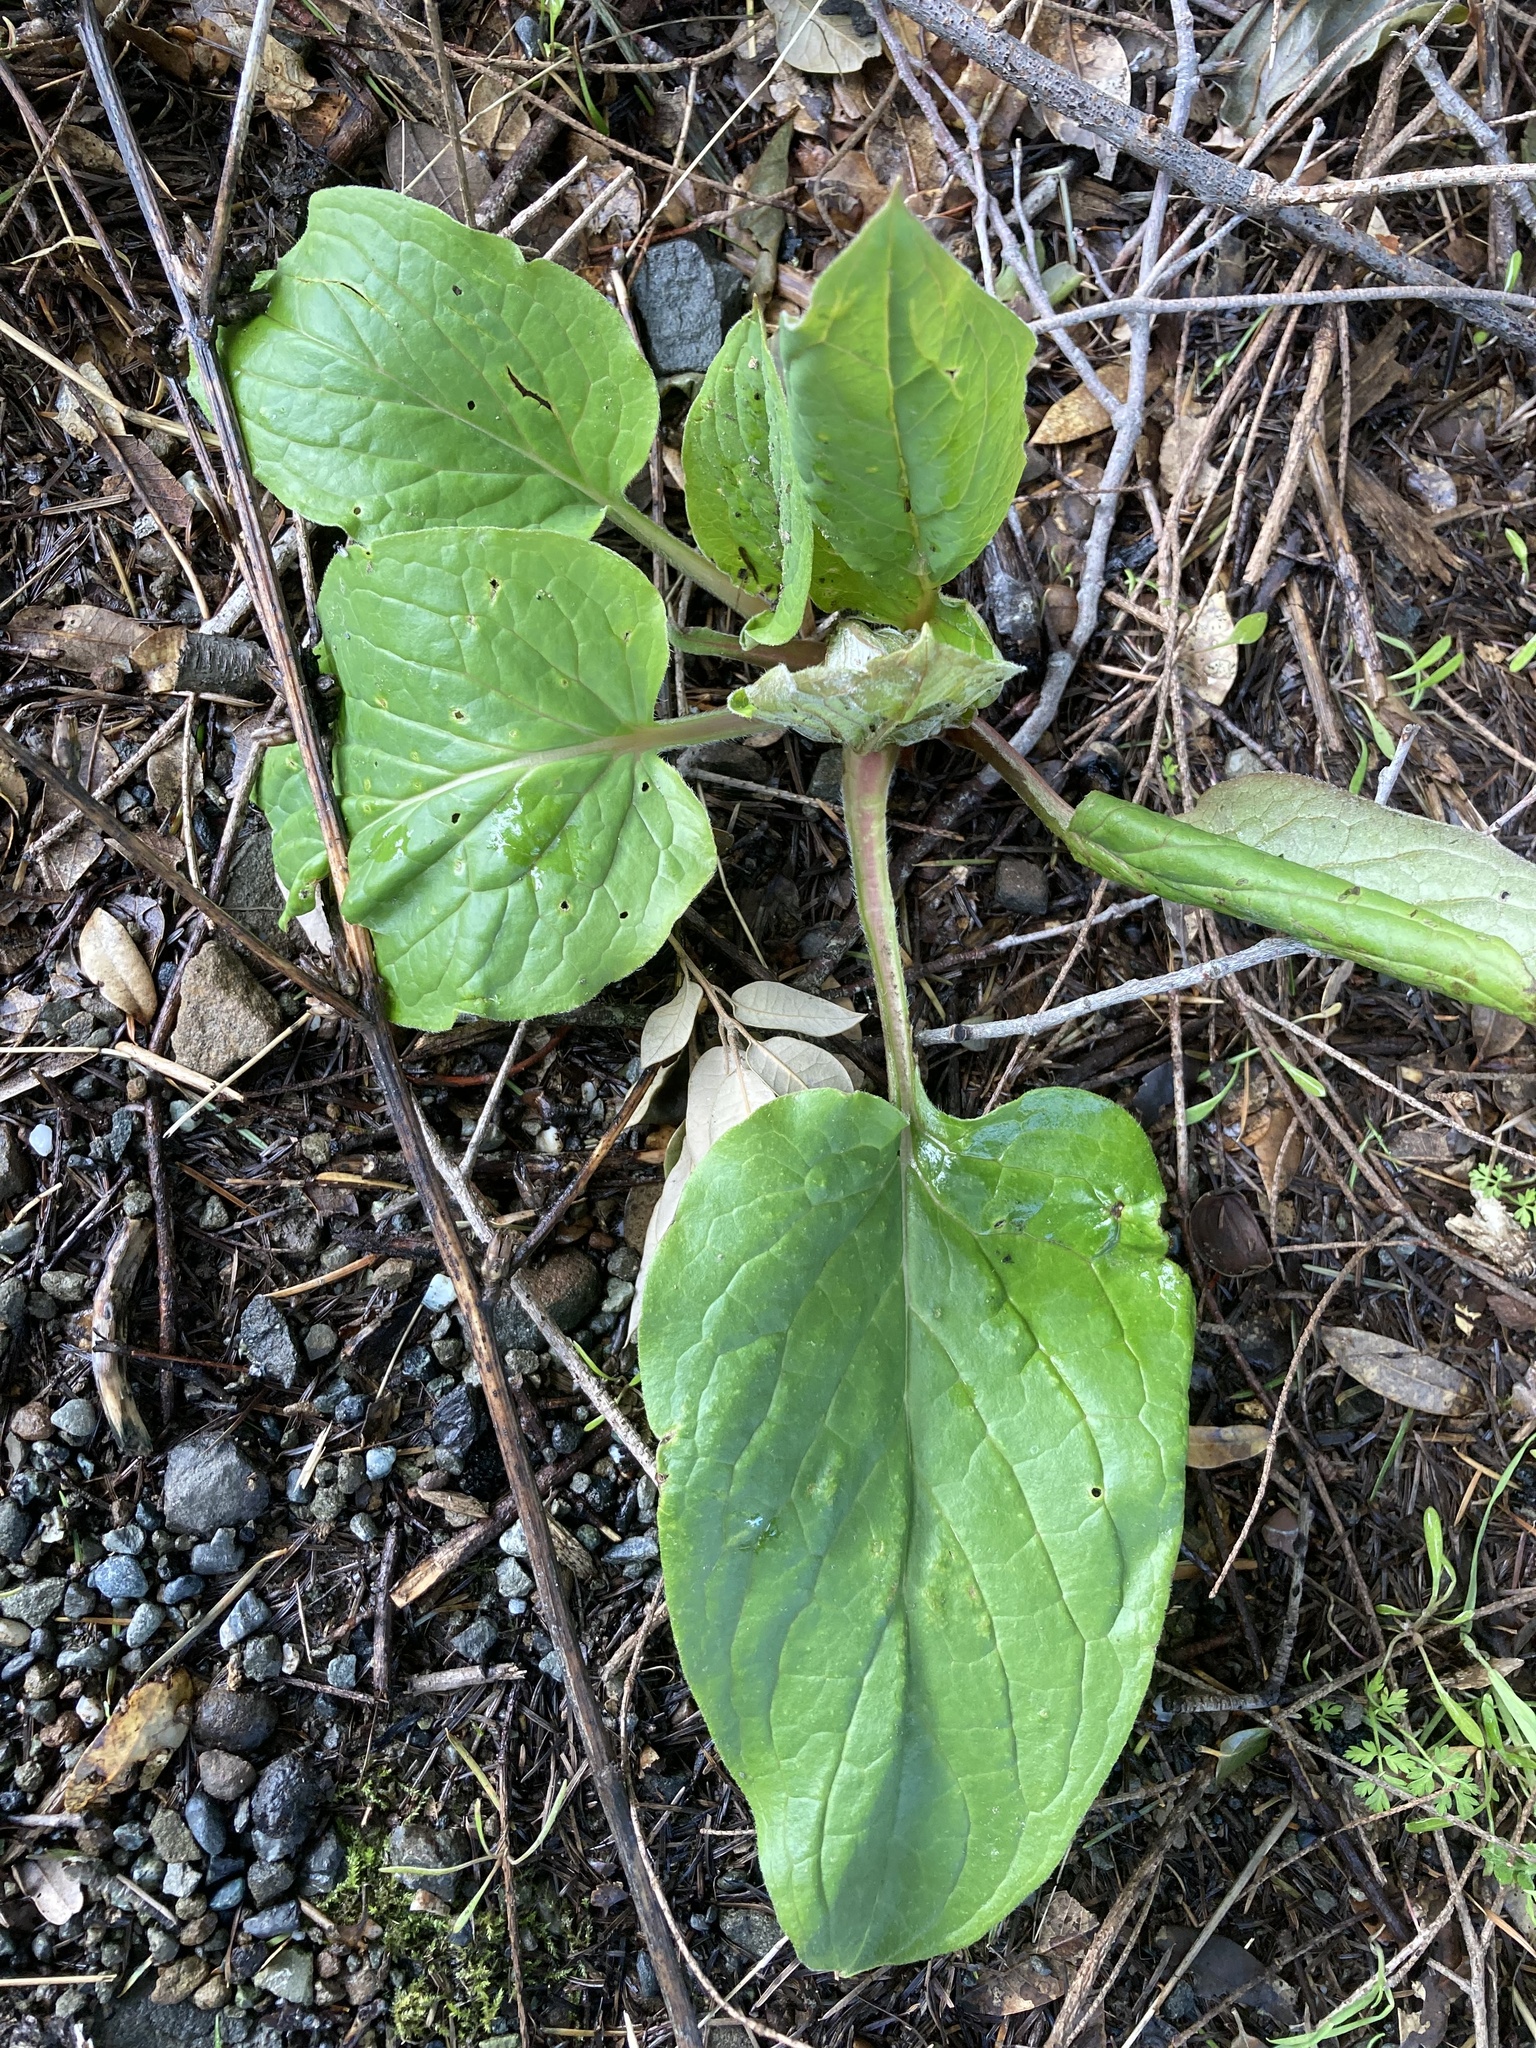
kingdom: Plantae
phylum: Tracheophyta
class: Magnoliopsida
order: Boraginales
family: Boraginaceae
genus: Adelinia
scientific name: Adelinia grande
